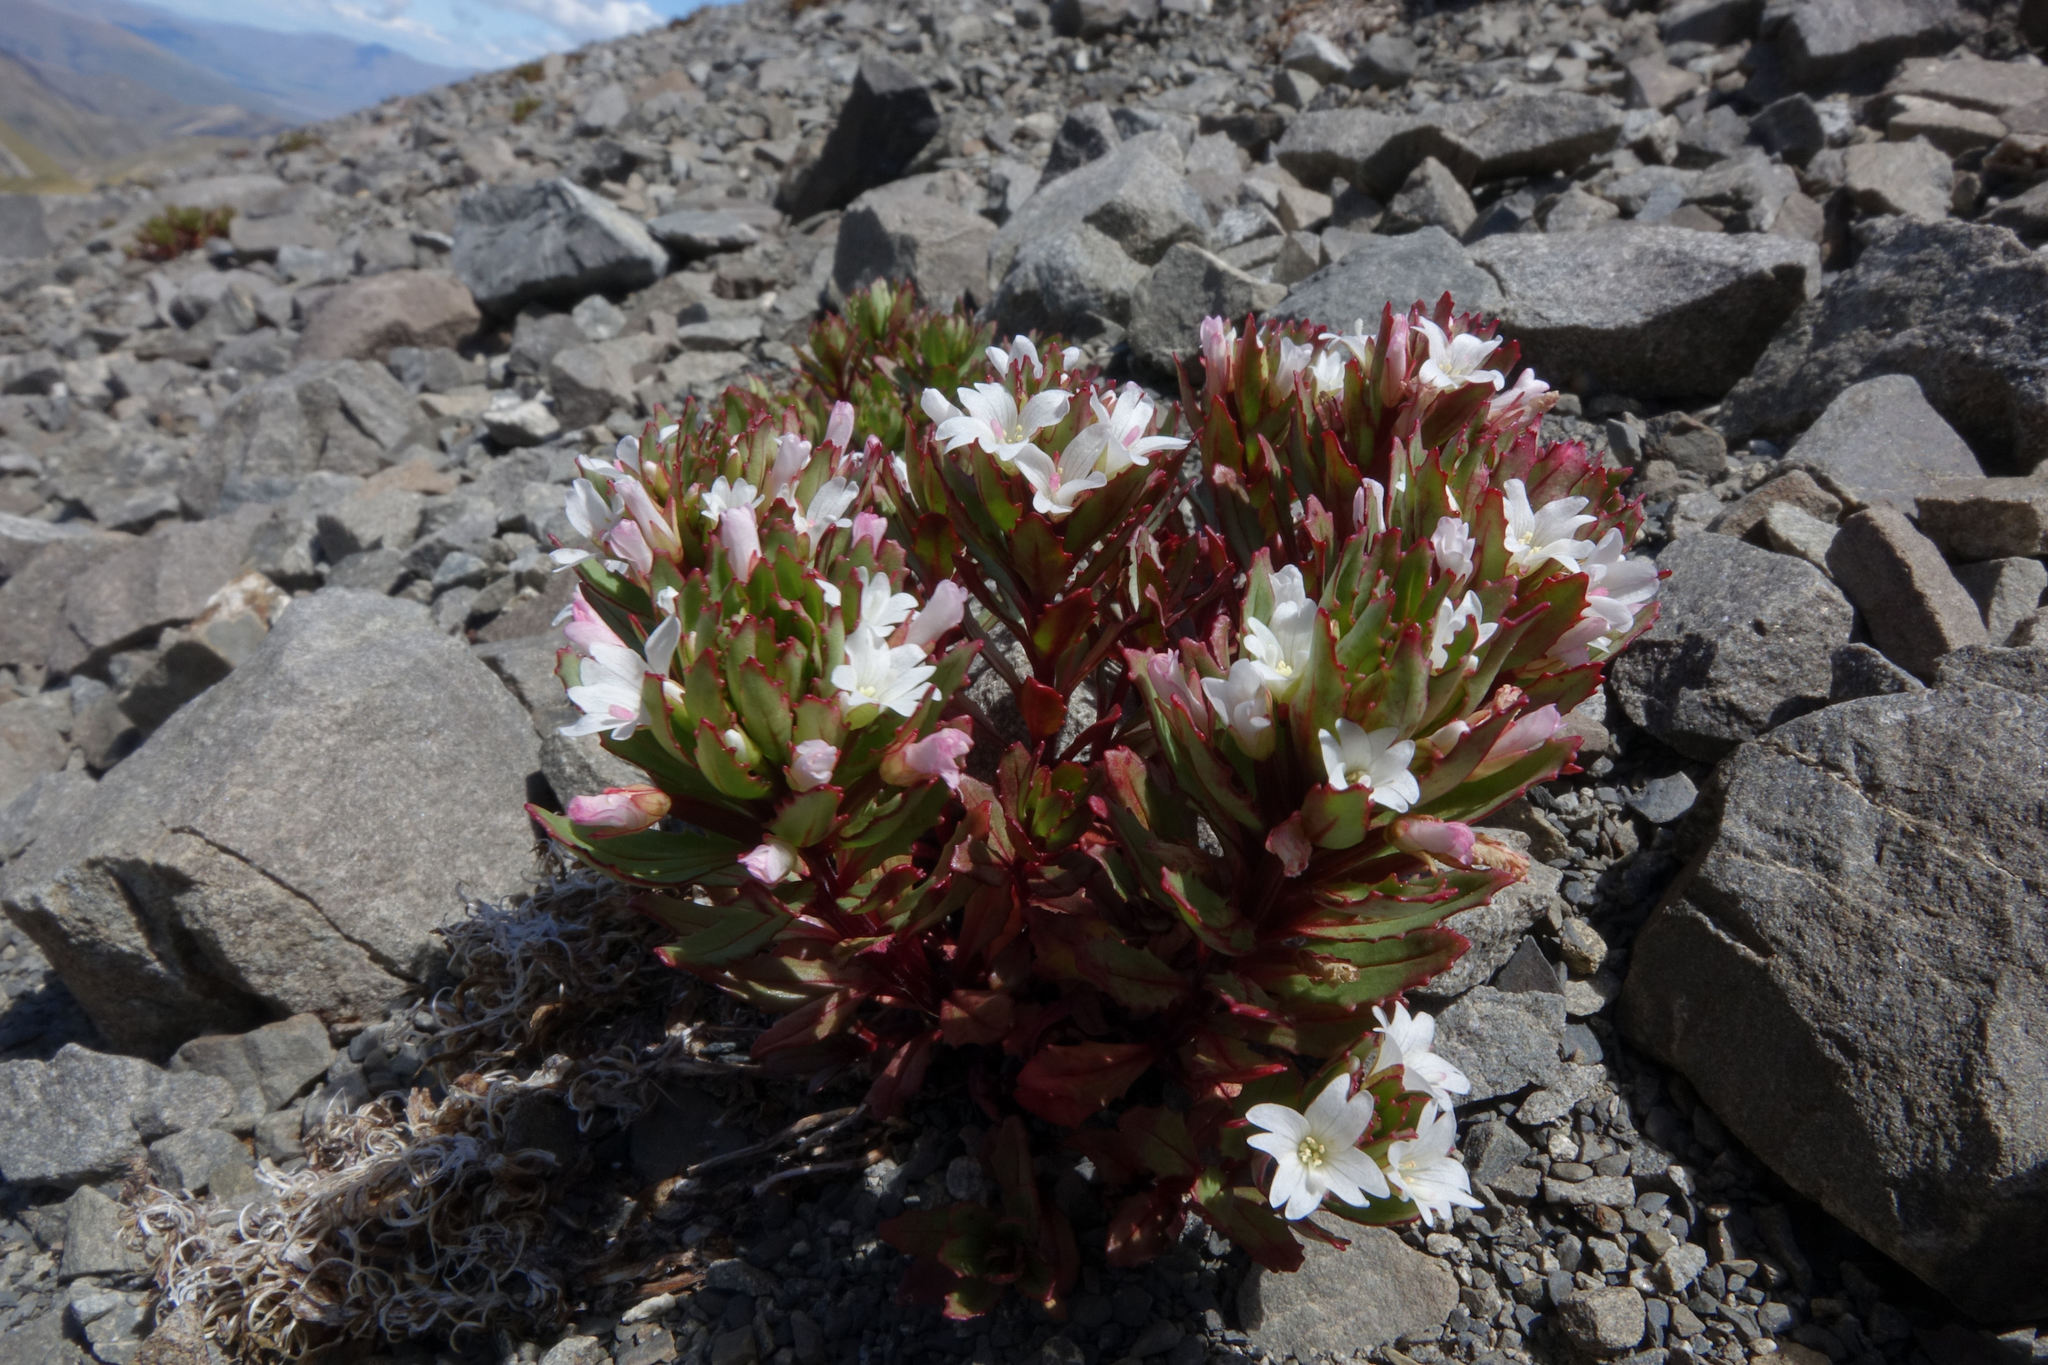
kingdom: Plantae
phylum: Tracheophyta
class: Magnoliopsida
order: Myrtales
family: Onagraceae
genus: Epilobium
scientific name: Epilobium pycnostachyum
